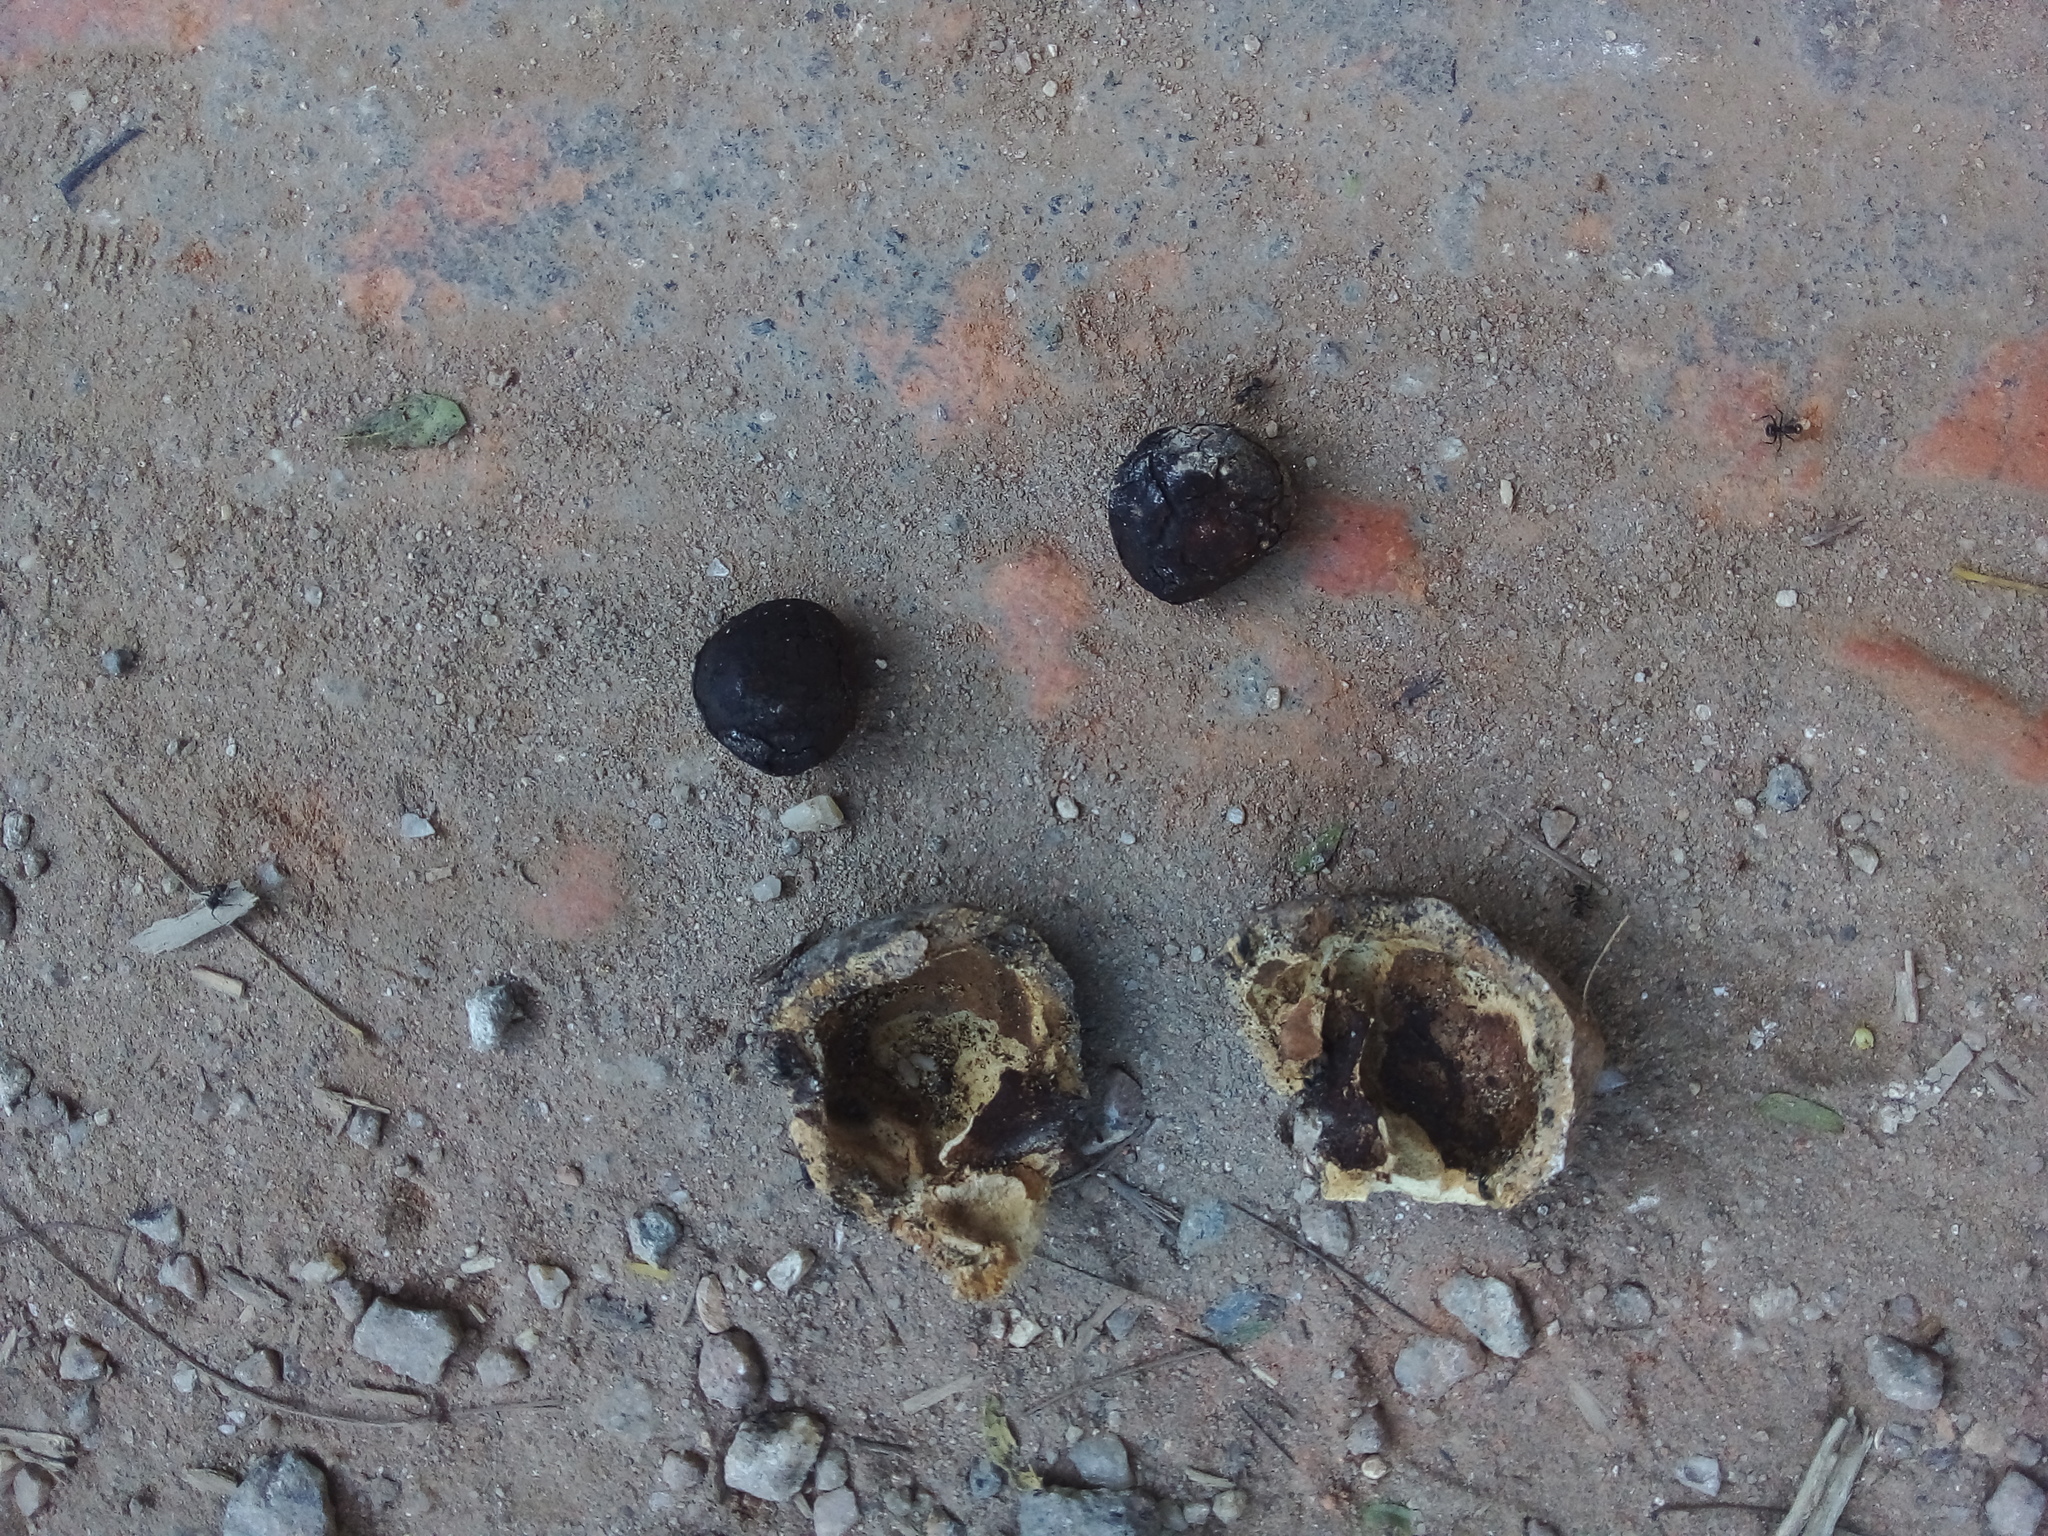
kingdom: Plantae
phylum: Tracheophyta
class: Magnoliopsida
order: Malpighiales
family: Euphorbiaceae
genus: Joannesia
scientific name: Joannesia princeps
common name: Arara nut-tree
